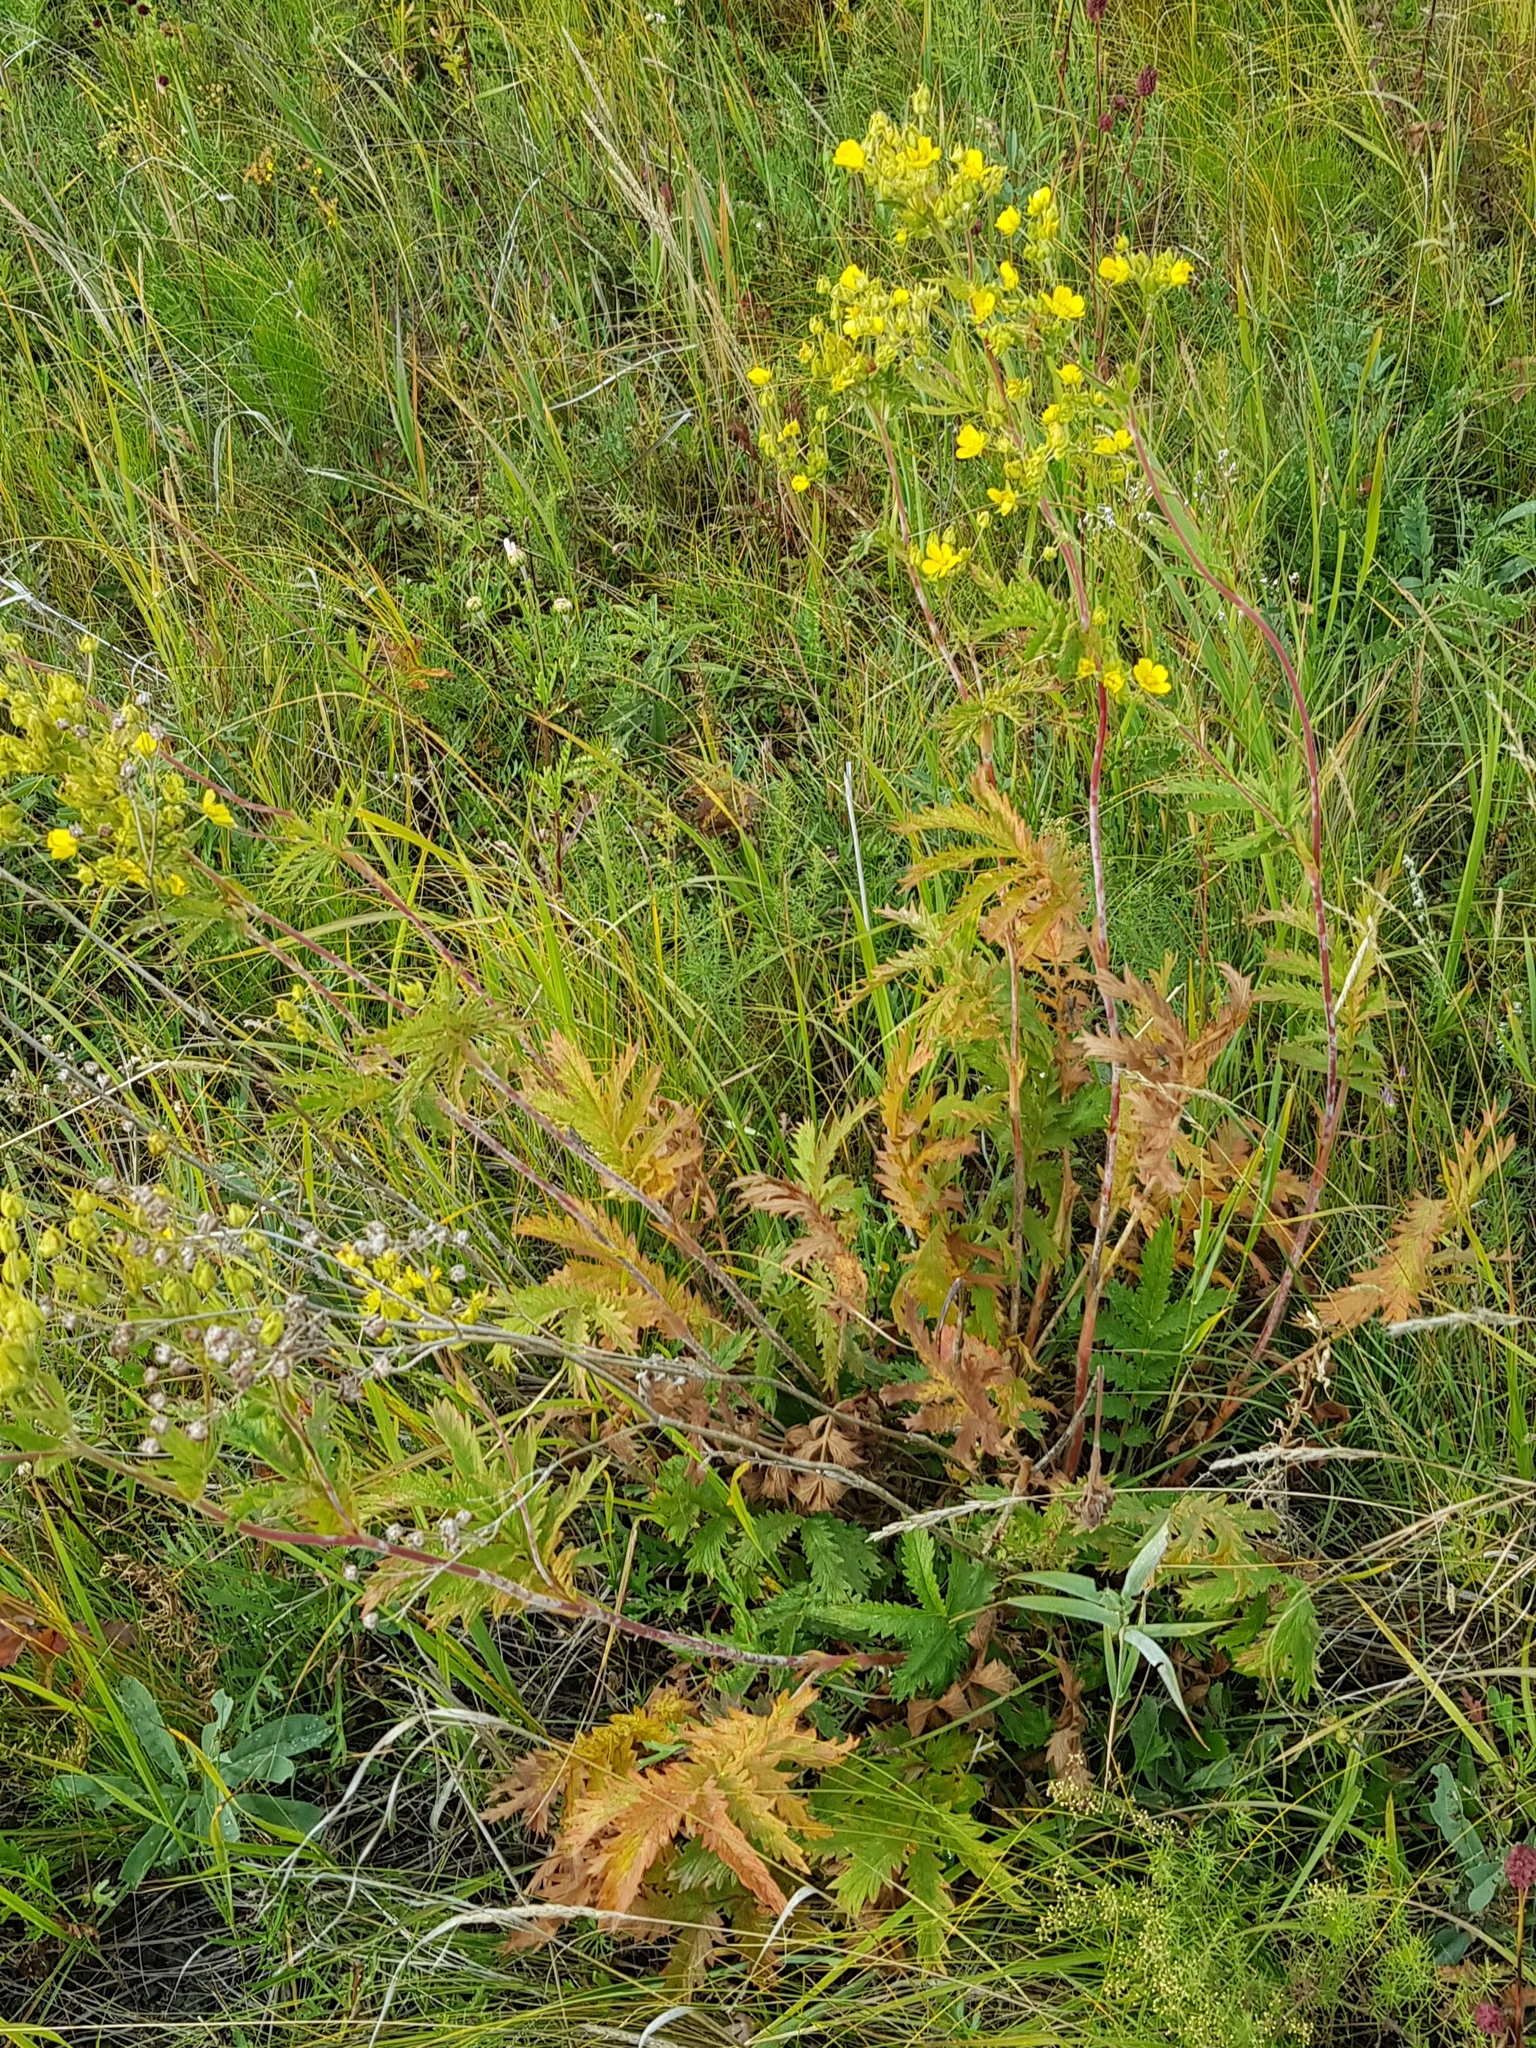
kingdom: Plantae
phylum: Tracheophyta
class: Magnoliopsida
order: Rosales
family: Rosaceae
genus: Potentilla
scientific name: Potentilla tanacetifolia
